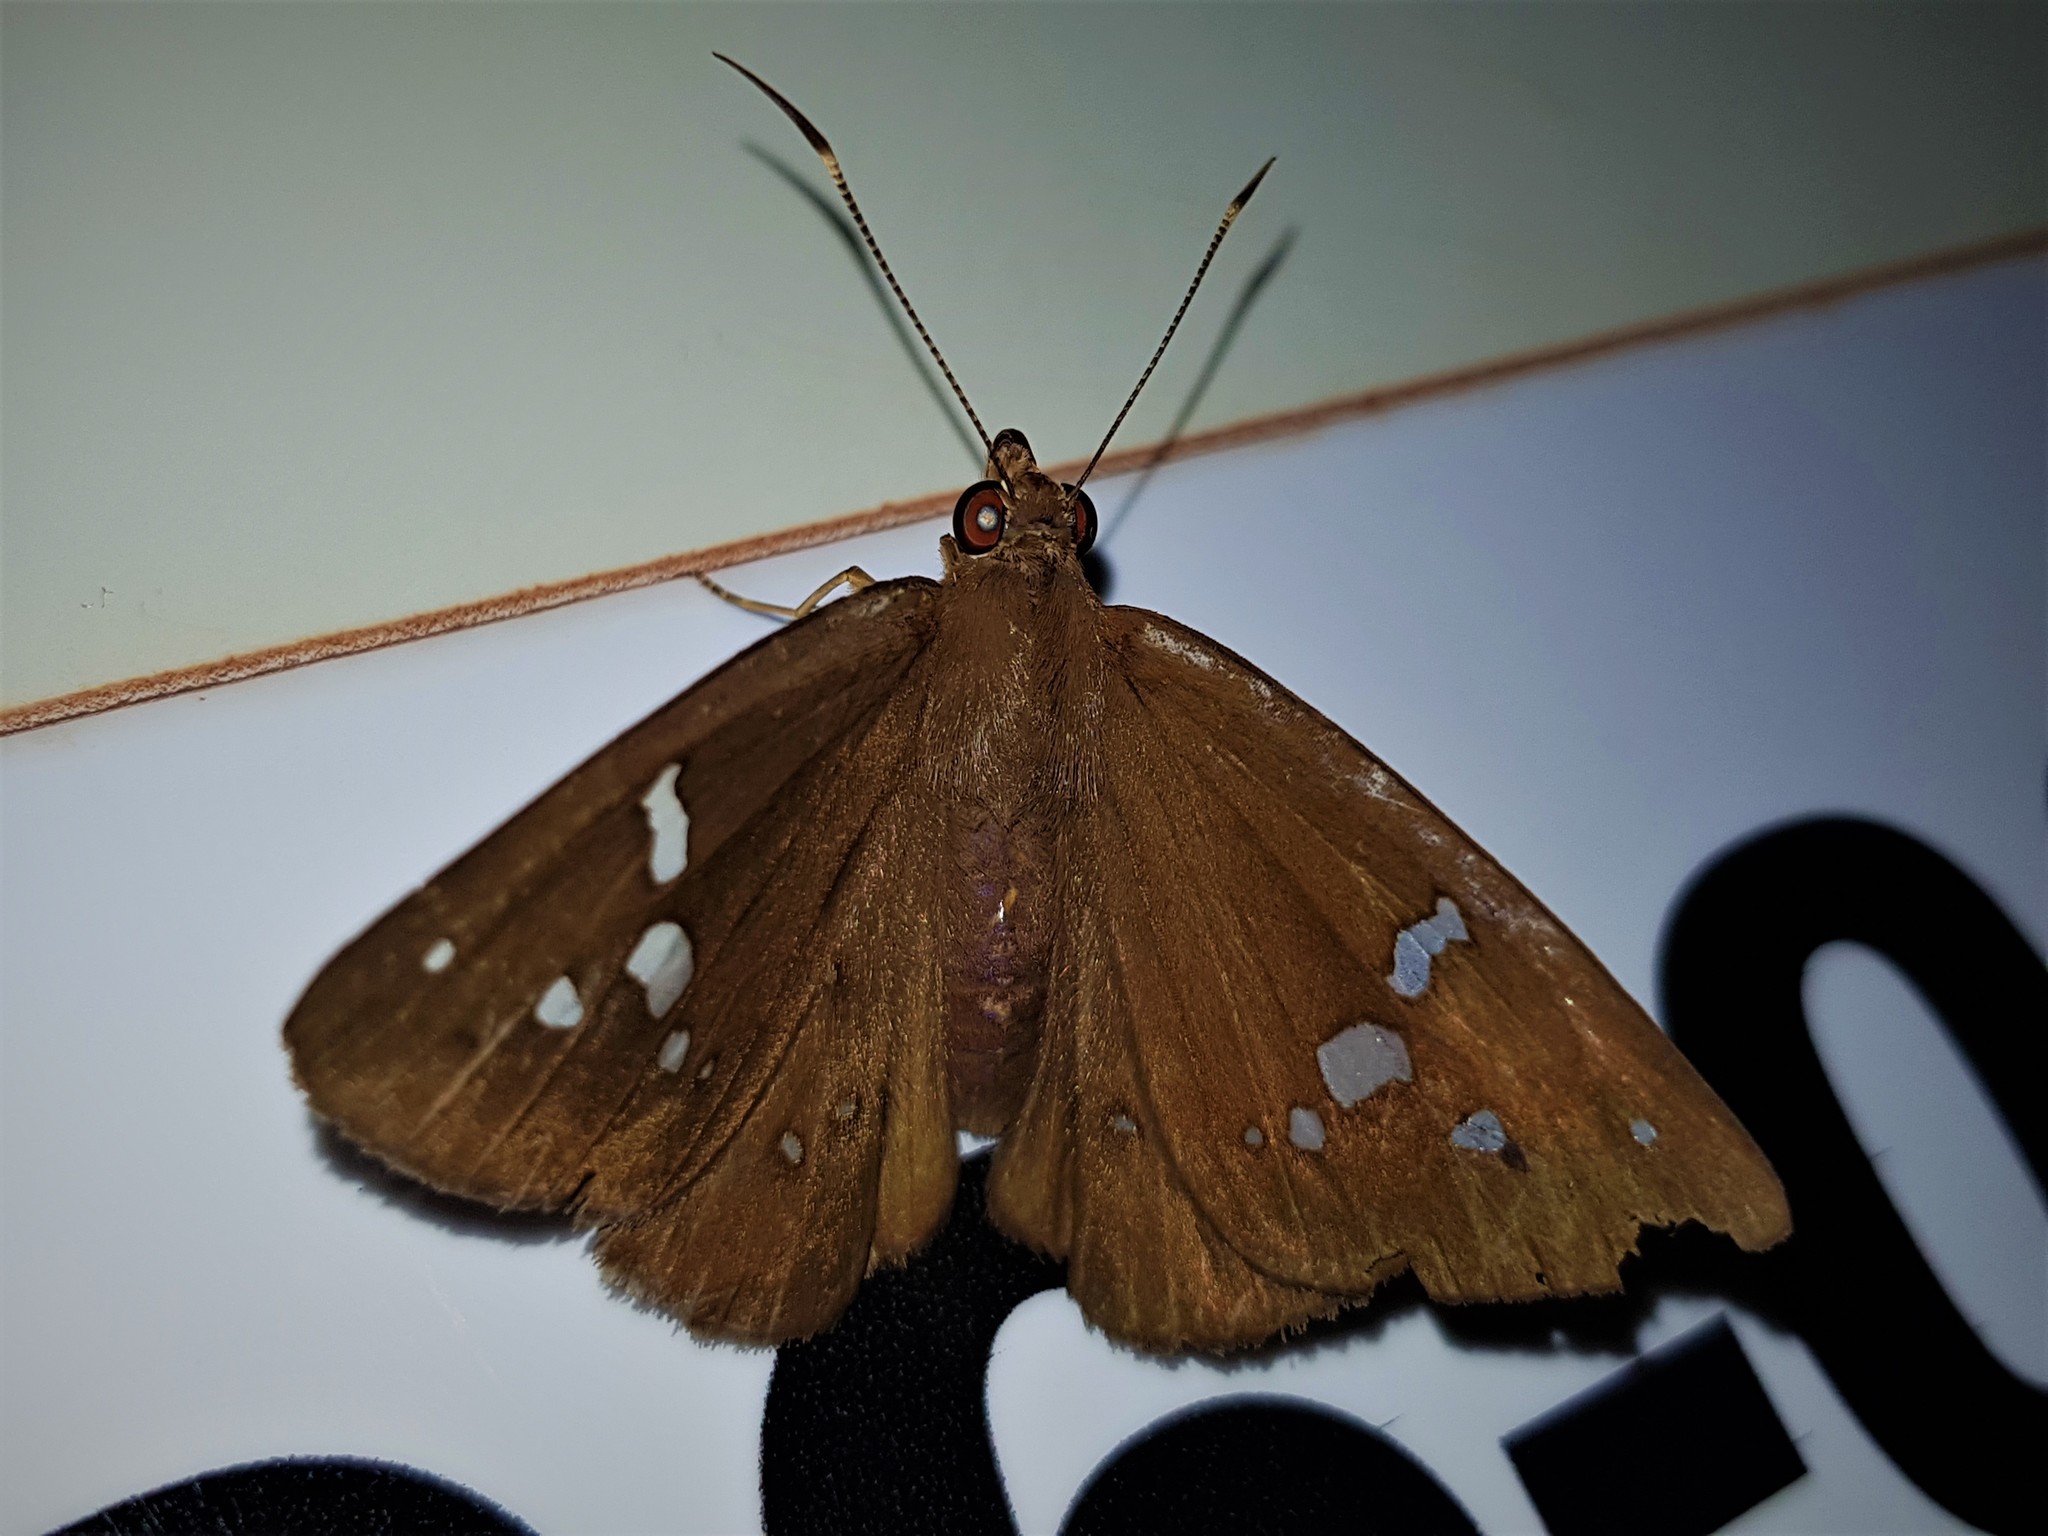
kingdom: Animalia
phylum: Arthropoda
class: Insecta
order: Lepidoptera
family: Hesperiidae
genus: Salatis
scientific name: Salatis salatis
